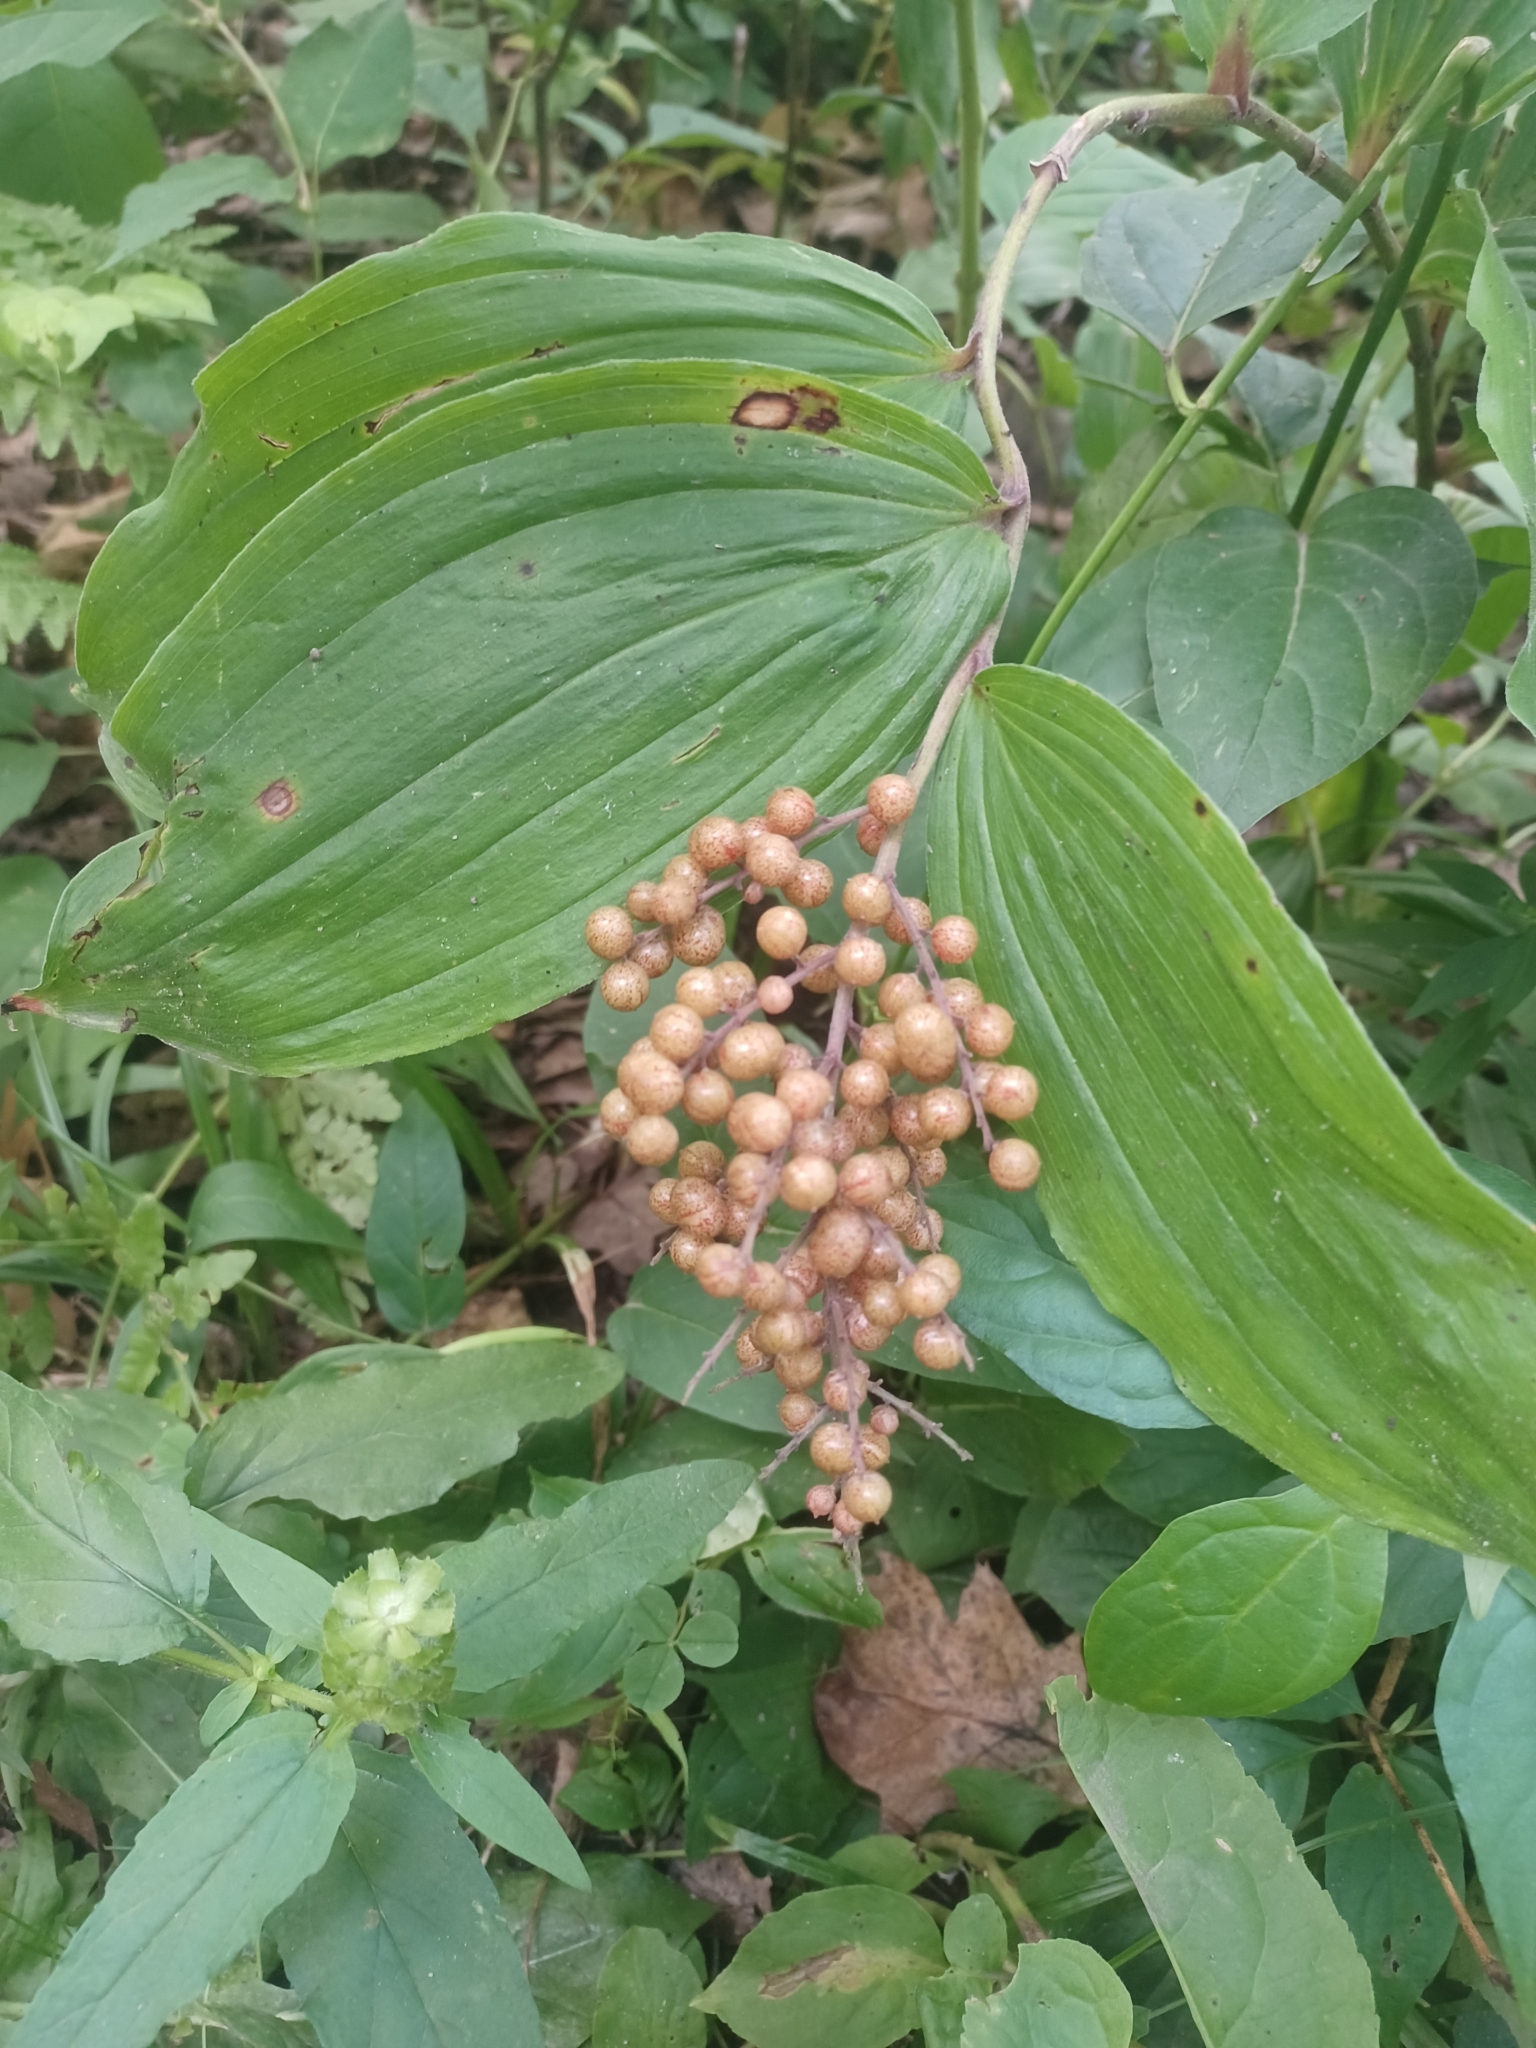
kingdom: Plantae
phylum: Tracheophyta
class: Liliopsida
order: Asparagales
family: Asparagaceae
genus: Maianthemum
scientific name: Maianthemum racemosum
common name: False spikenard
